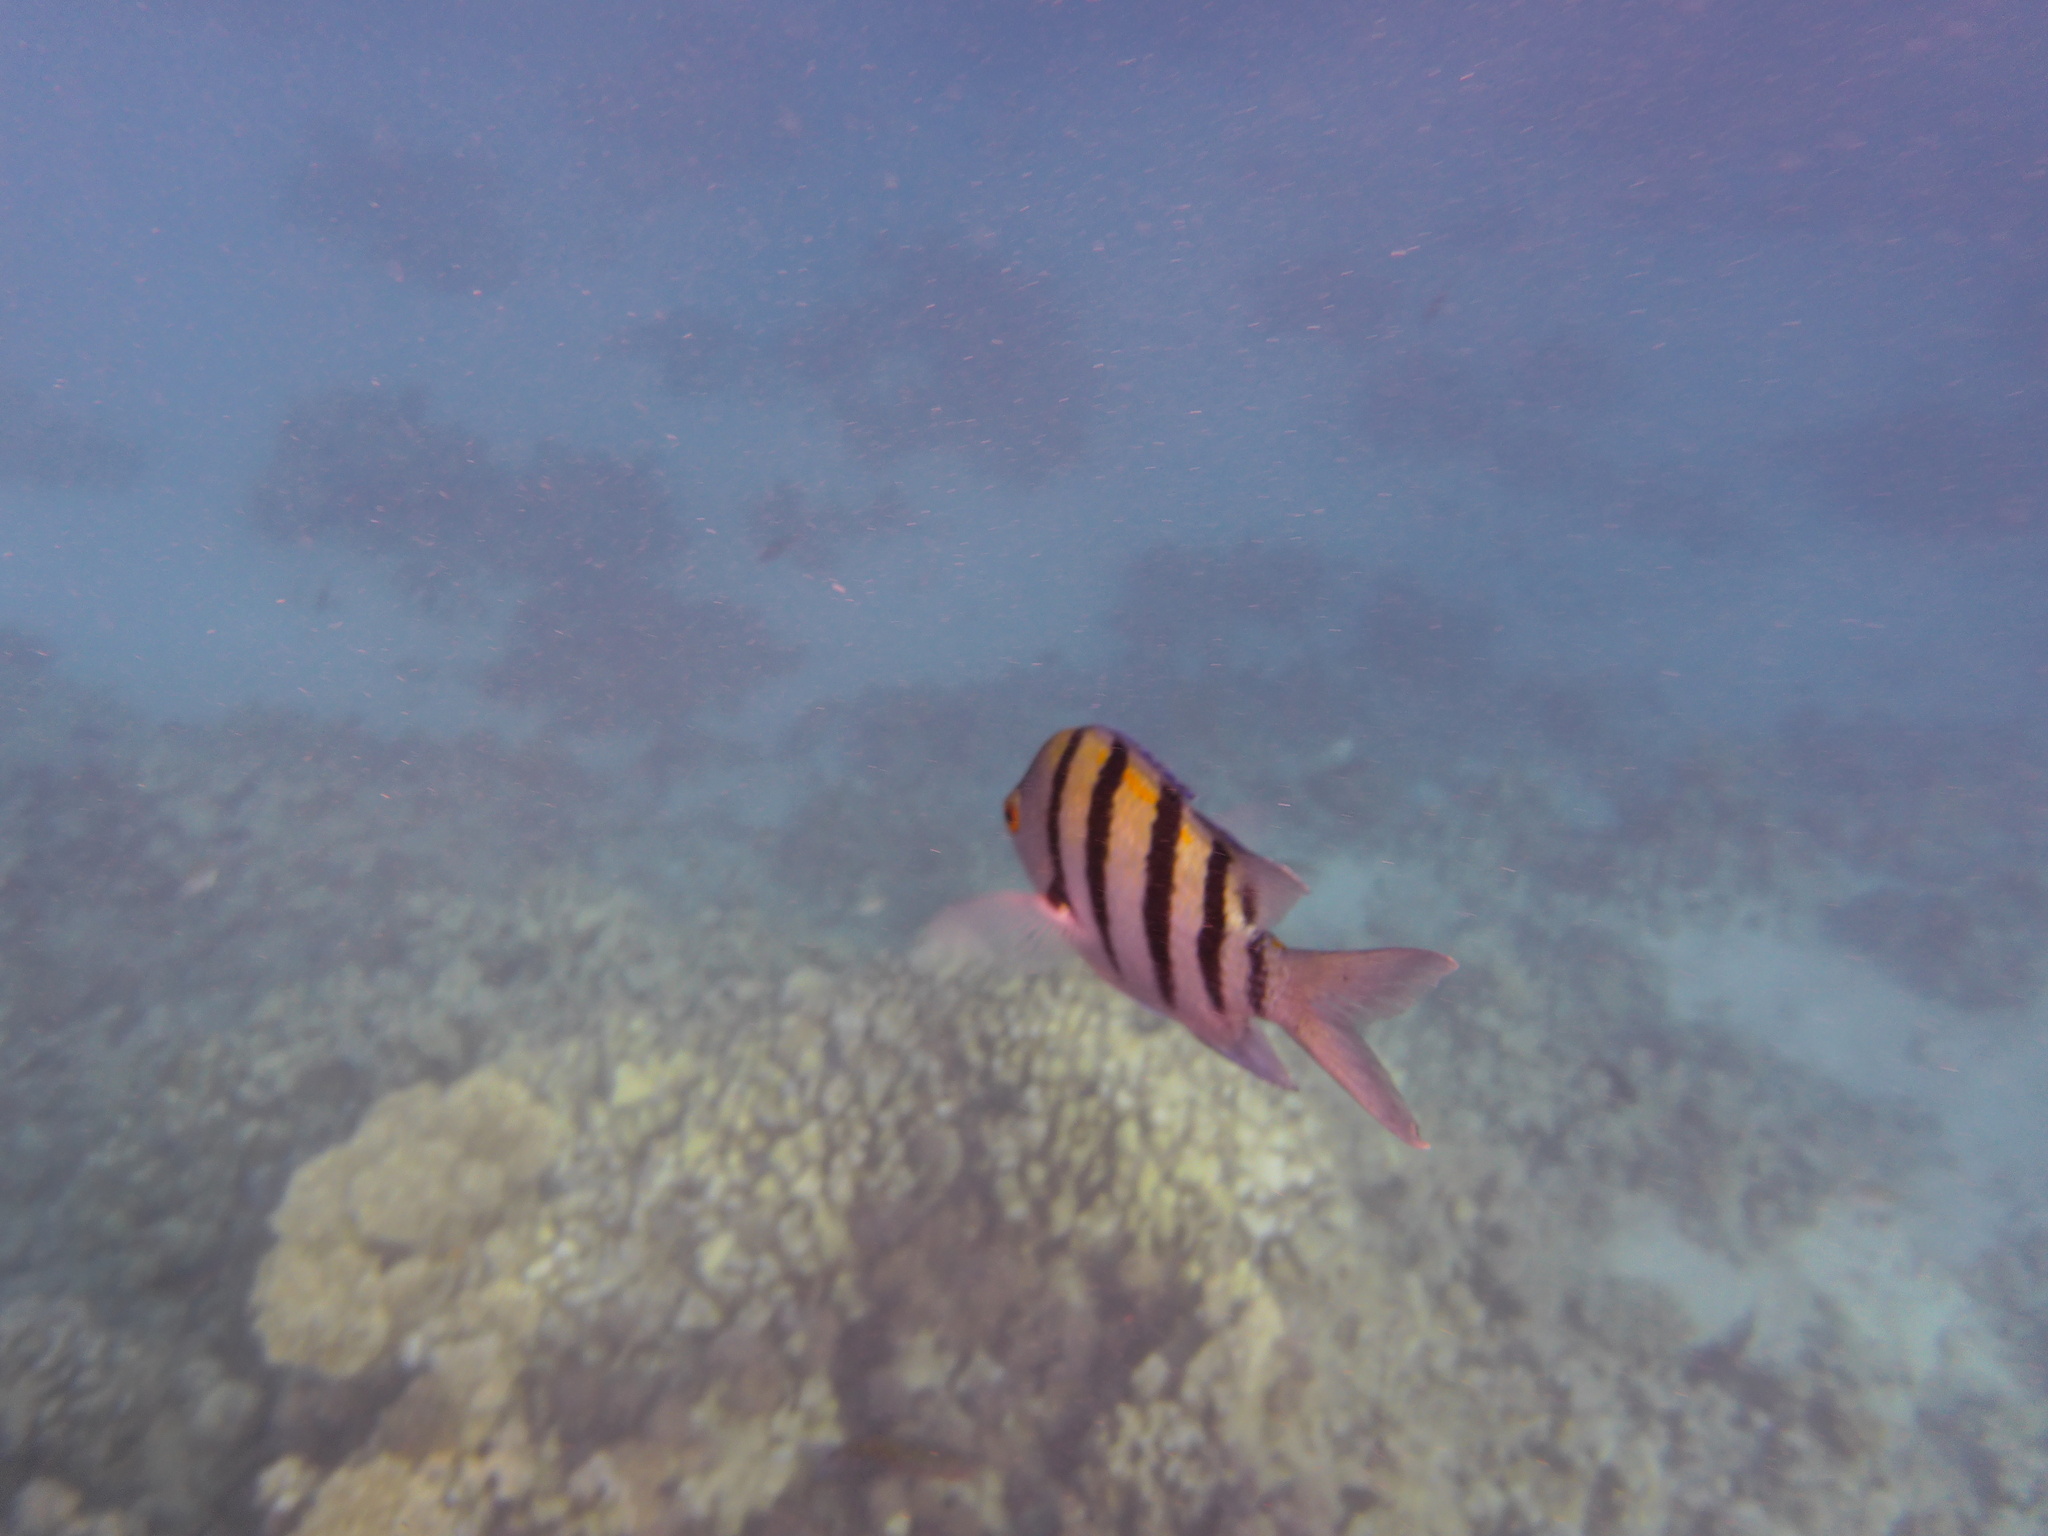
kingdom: Animalia
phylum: Chordata
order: Perciformes
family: Pomacentridae
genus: Abudefduf
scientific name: Abudefduf vaigiensis
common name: Indo-pacific sergeant
